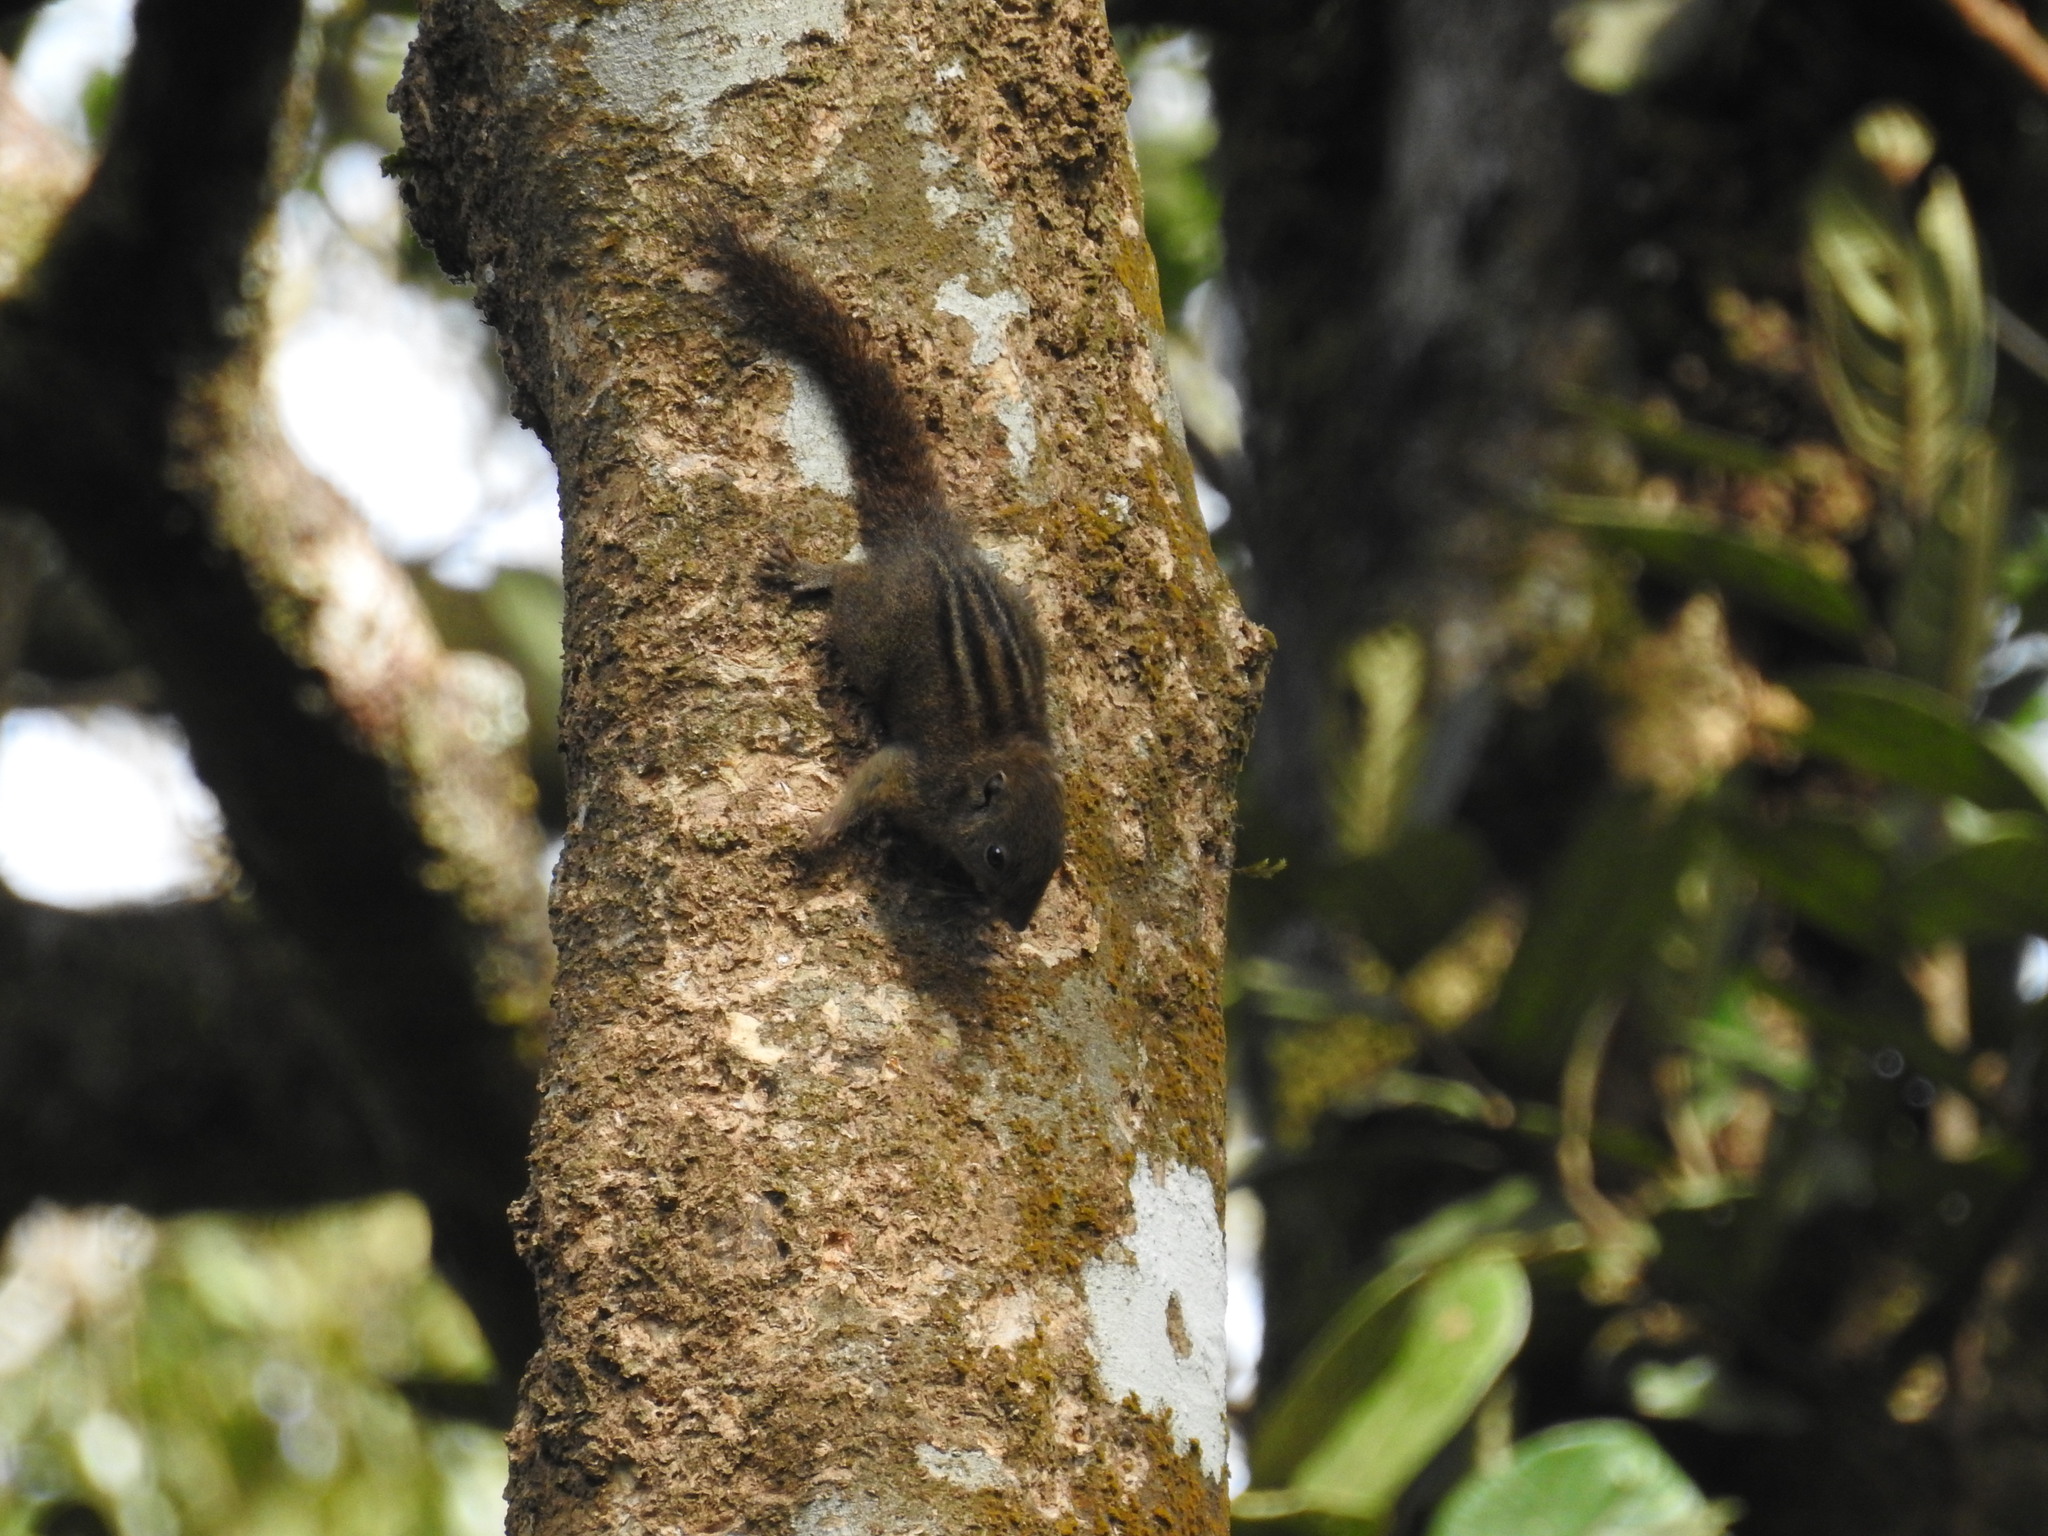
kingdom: Animalia
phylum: Chordata
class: Mammalia
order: Rodentia
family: Sciuridae
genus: Funambulus
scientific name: Funambulus sublineatus
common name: Dusky palm squirrel
